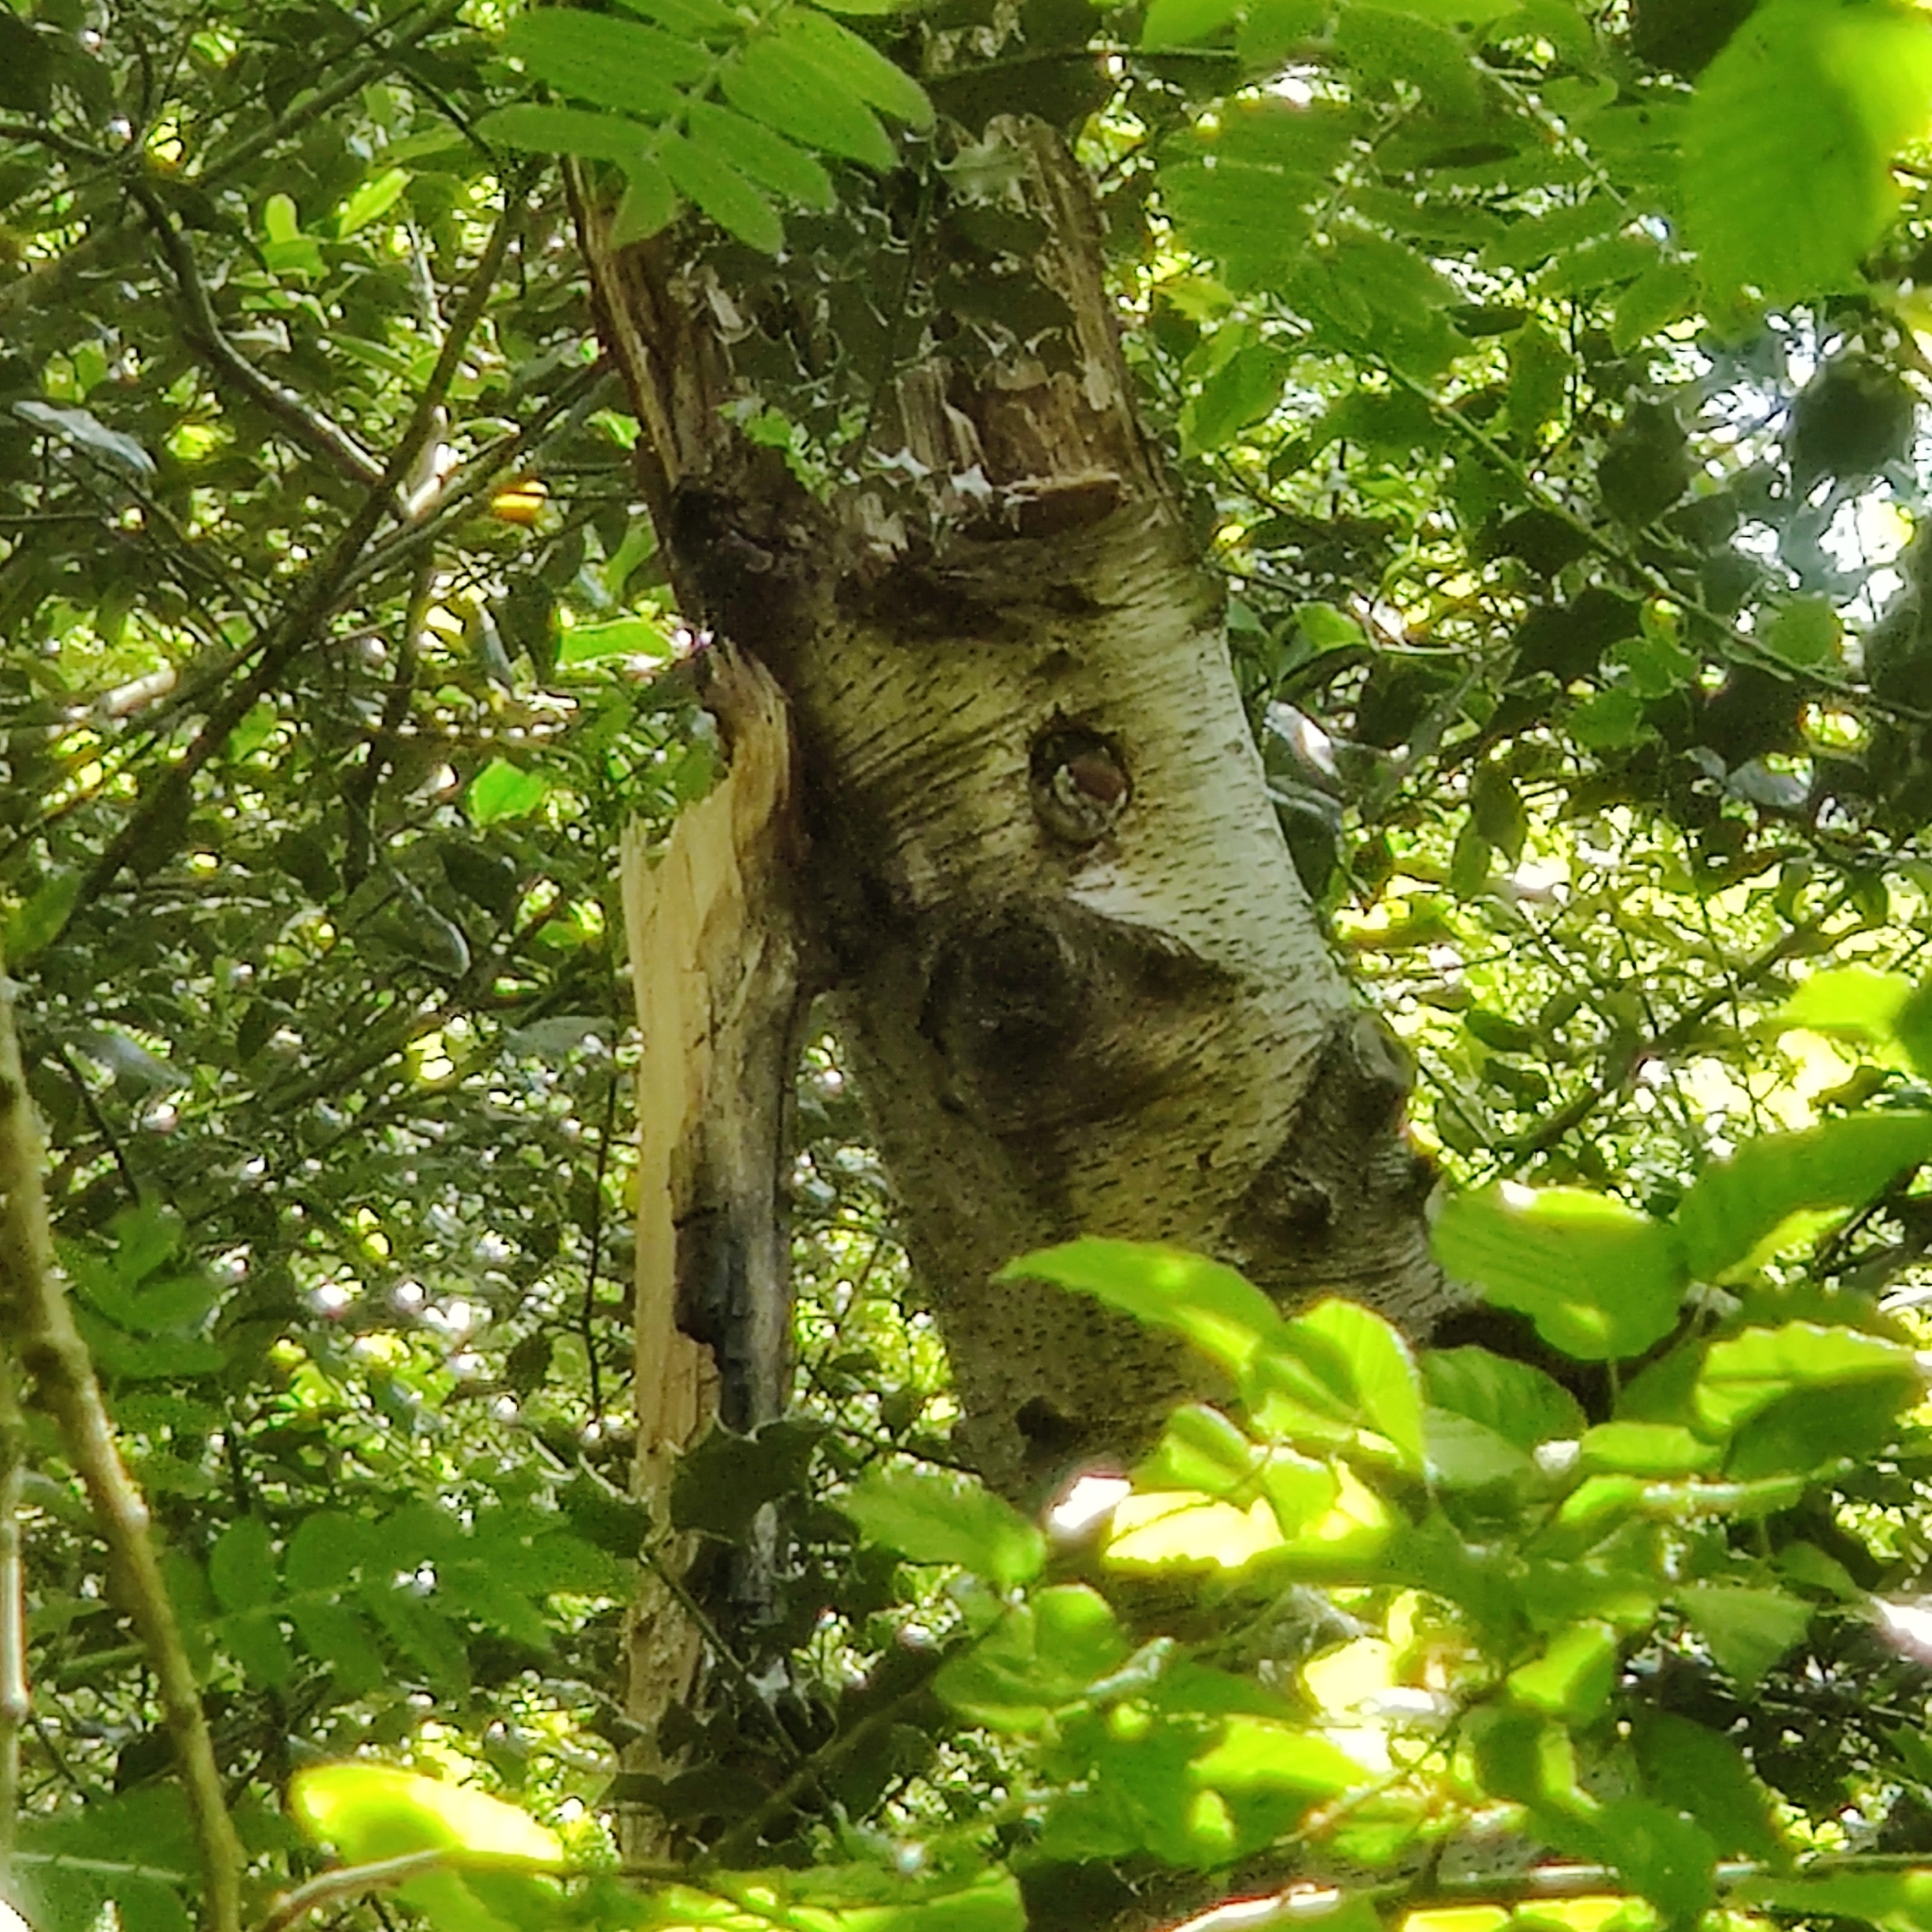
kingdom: Animalia
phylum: Chordata
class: Aves
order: Piciformes
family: Picidae
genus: Dendrocopos
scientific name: Dendrocopos major
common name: Great spotted woodpecker
